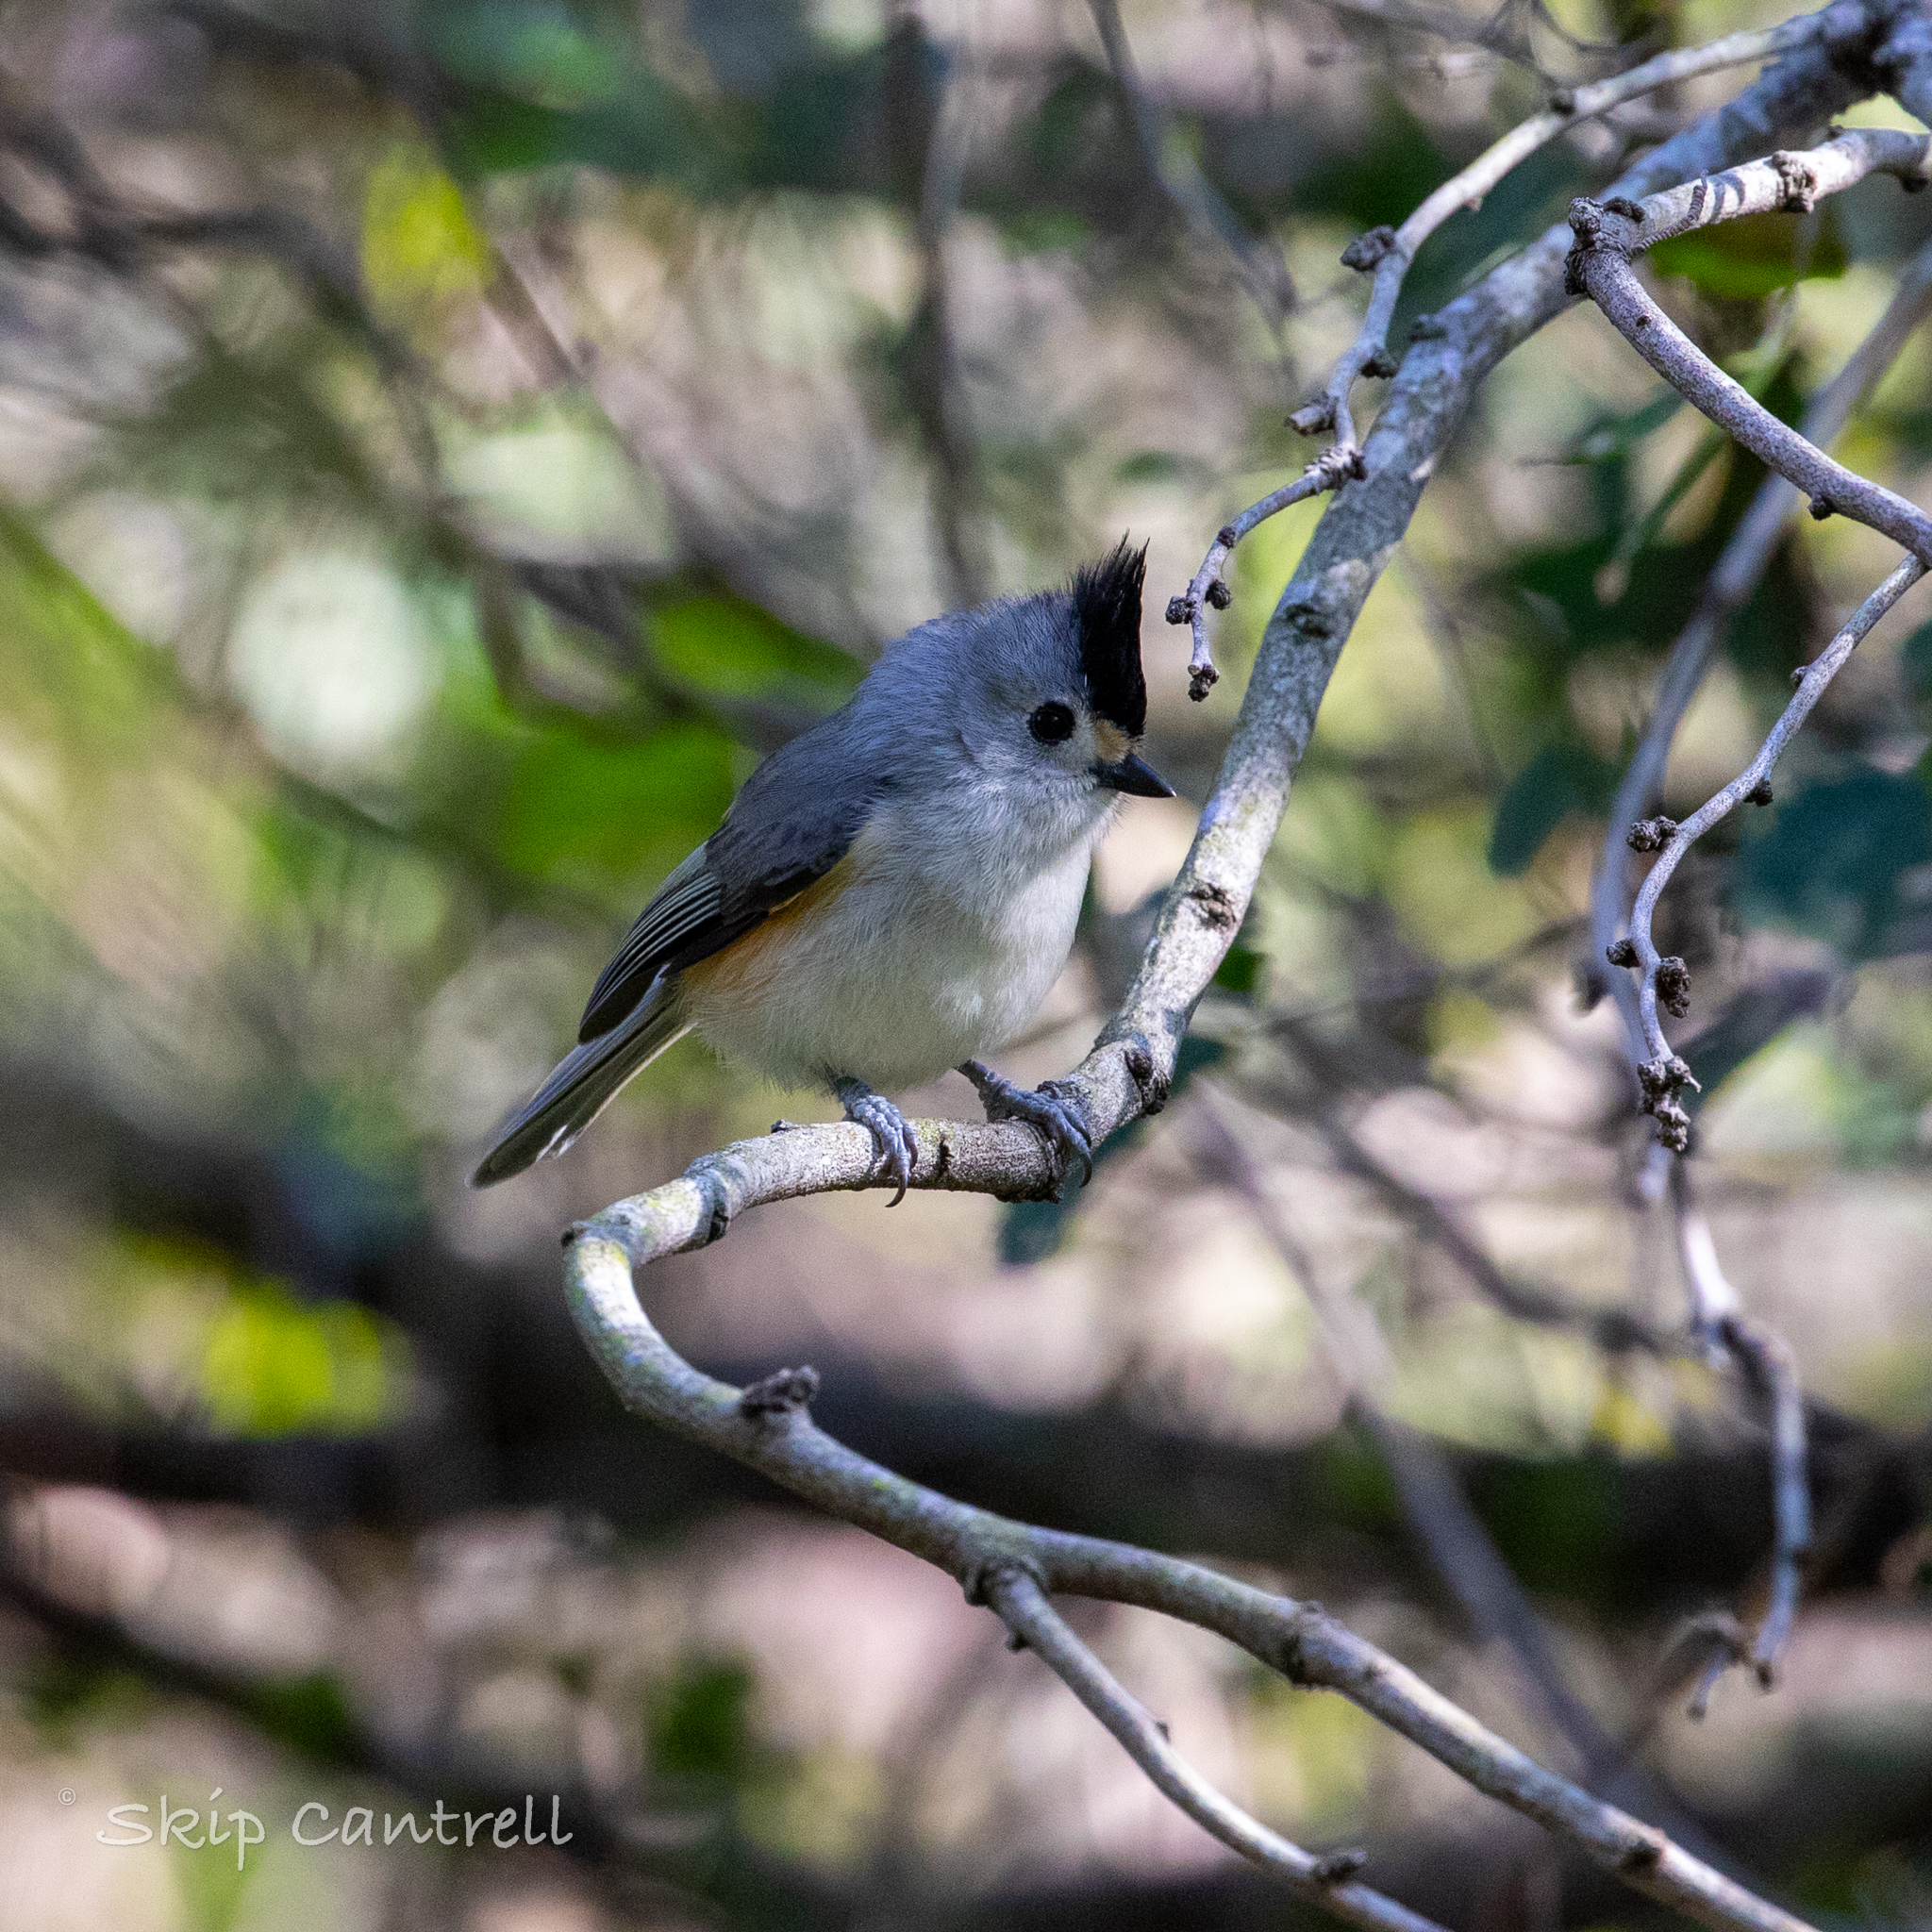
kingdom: Animalia
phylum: Chordata
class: Aves
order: Passeriformes
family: Paridae
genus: Baeolophus
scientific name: Baeolophus atricristatus
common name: Black-crested titmouse
